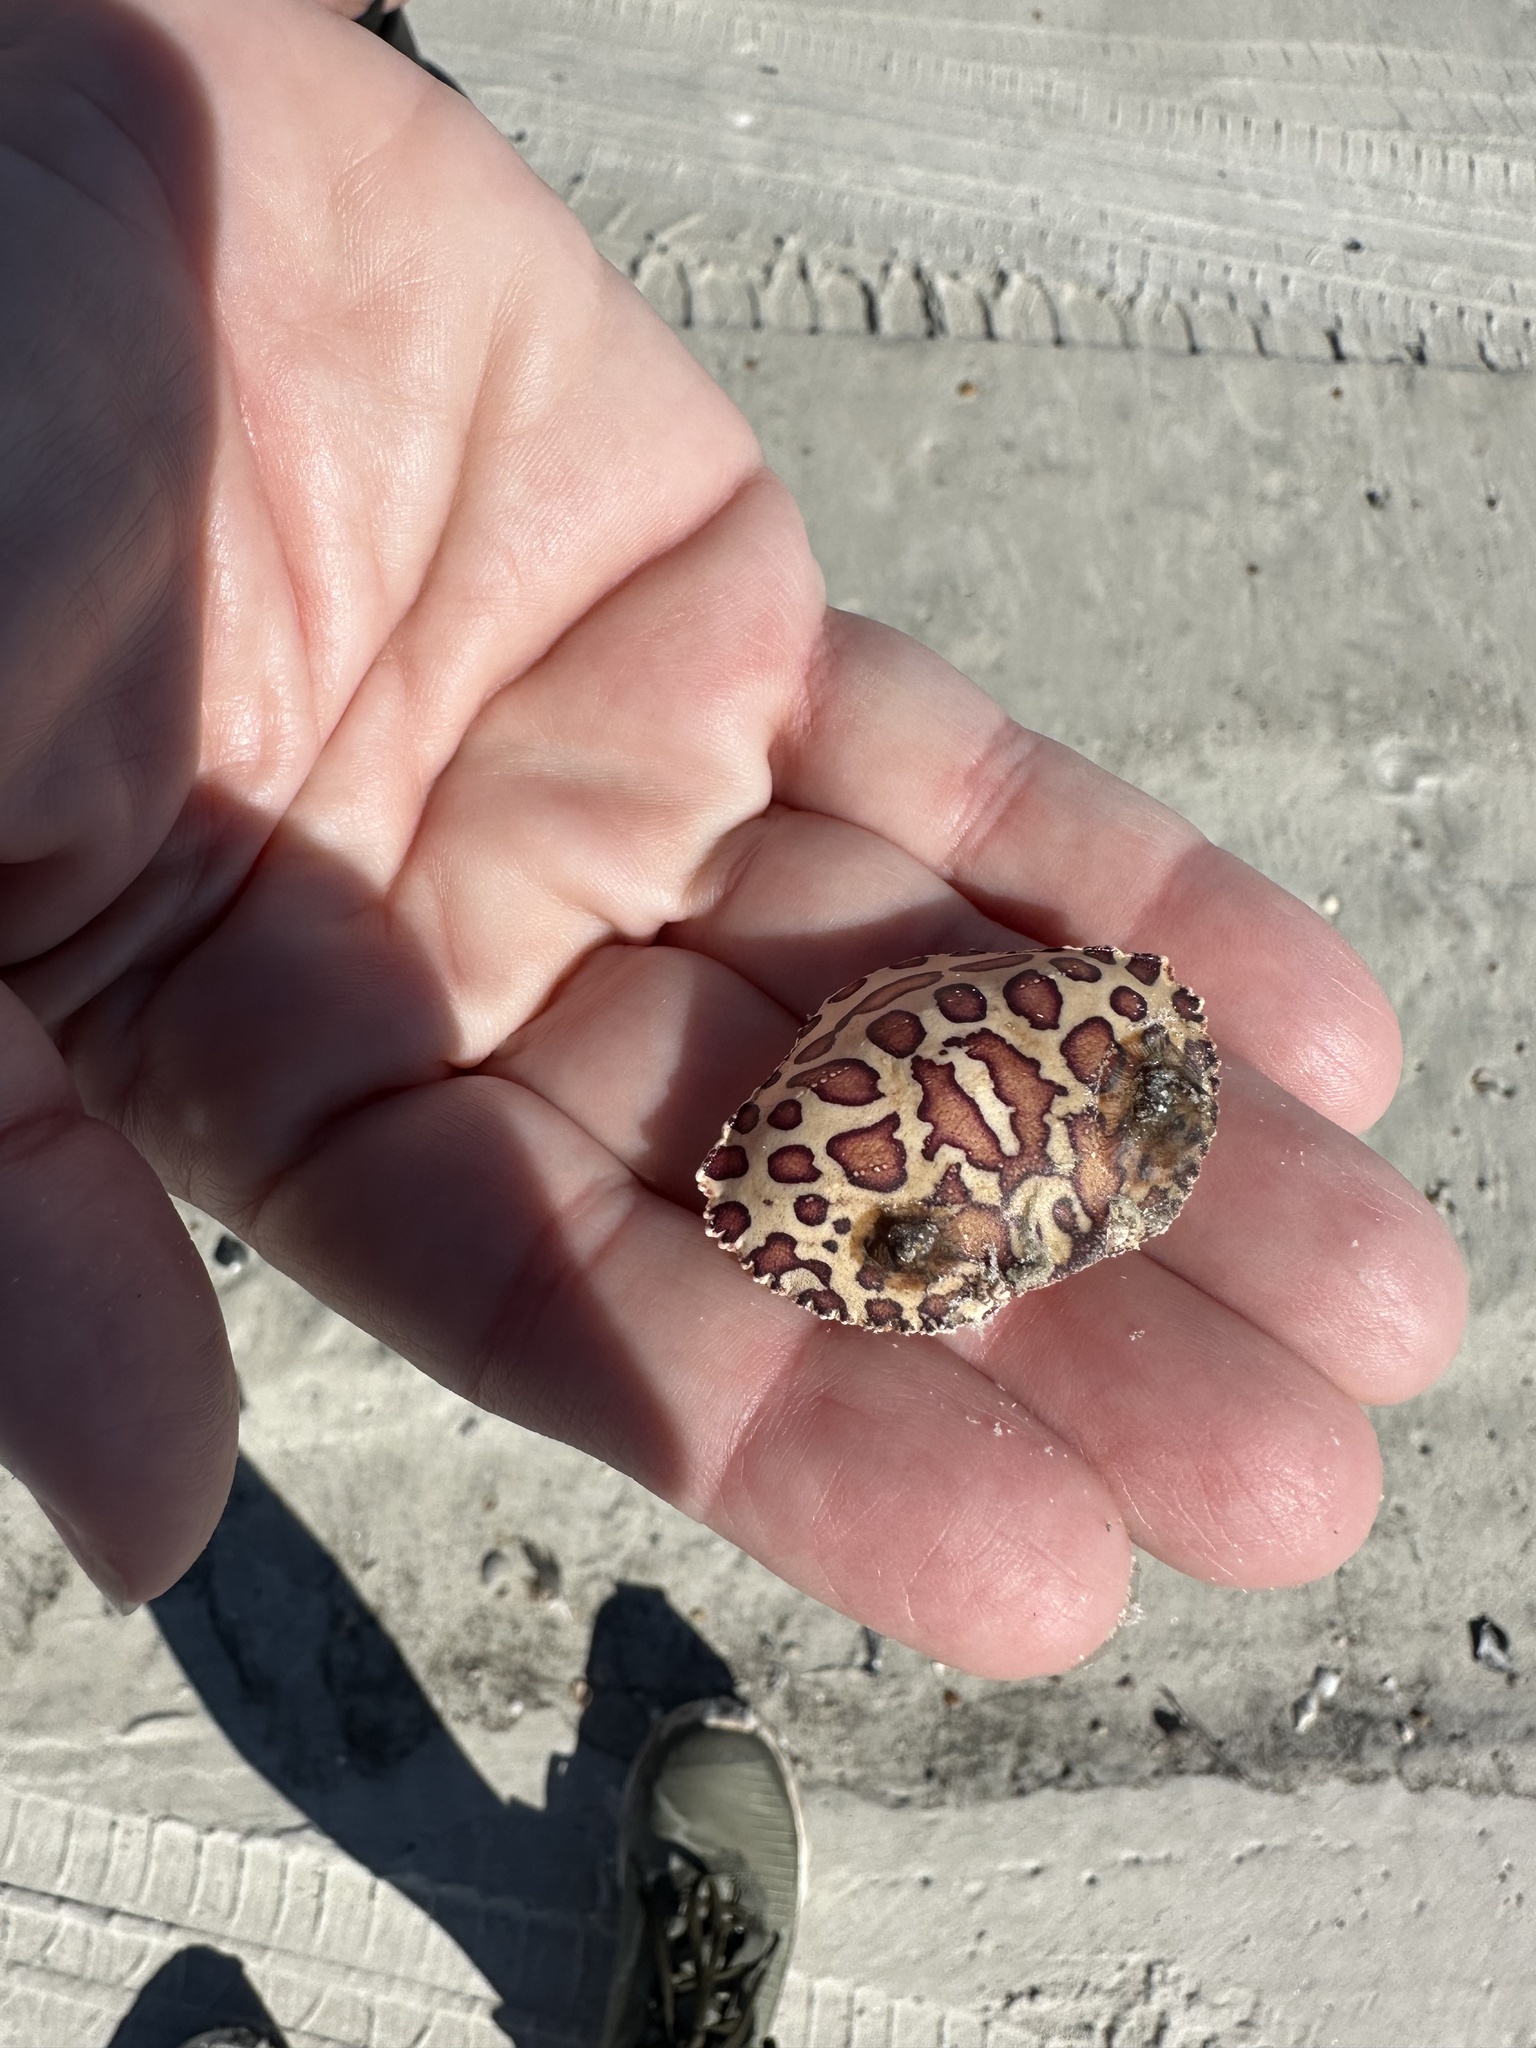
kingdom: Animalia
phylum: Arthropoda
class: Malacostraca
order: Decapoda
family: Aethridae
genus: Hepatus
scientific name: Hepatus epheliticus
